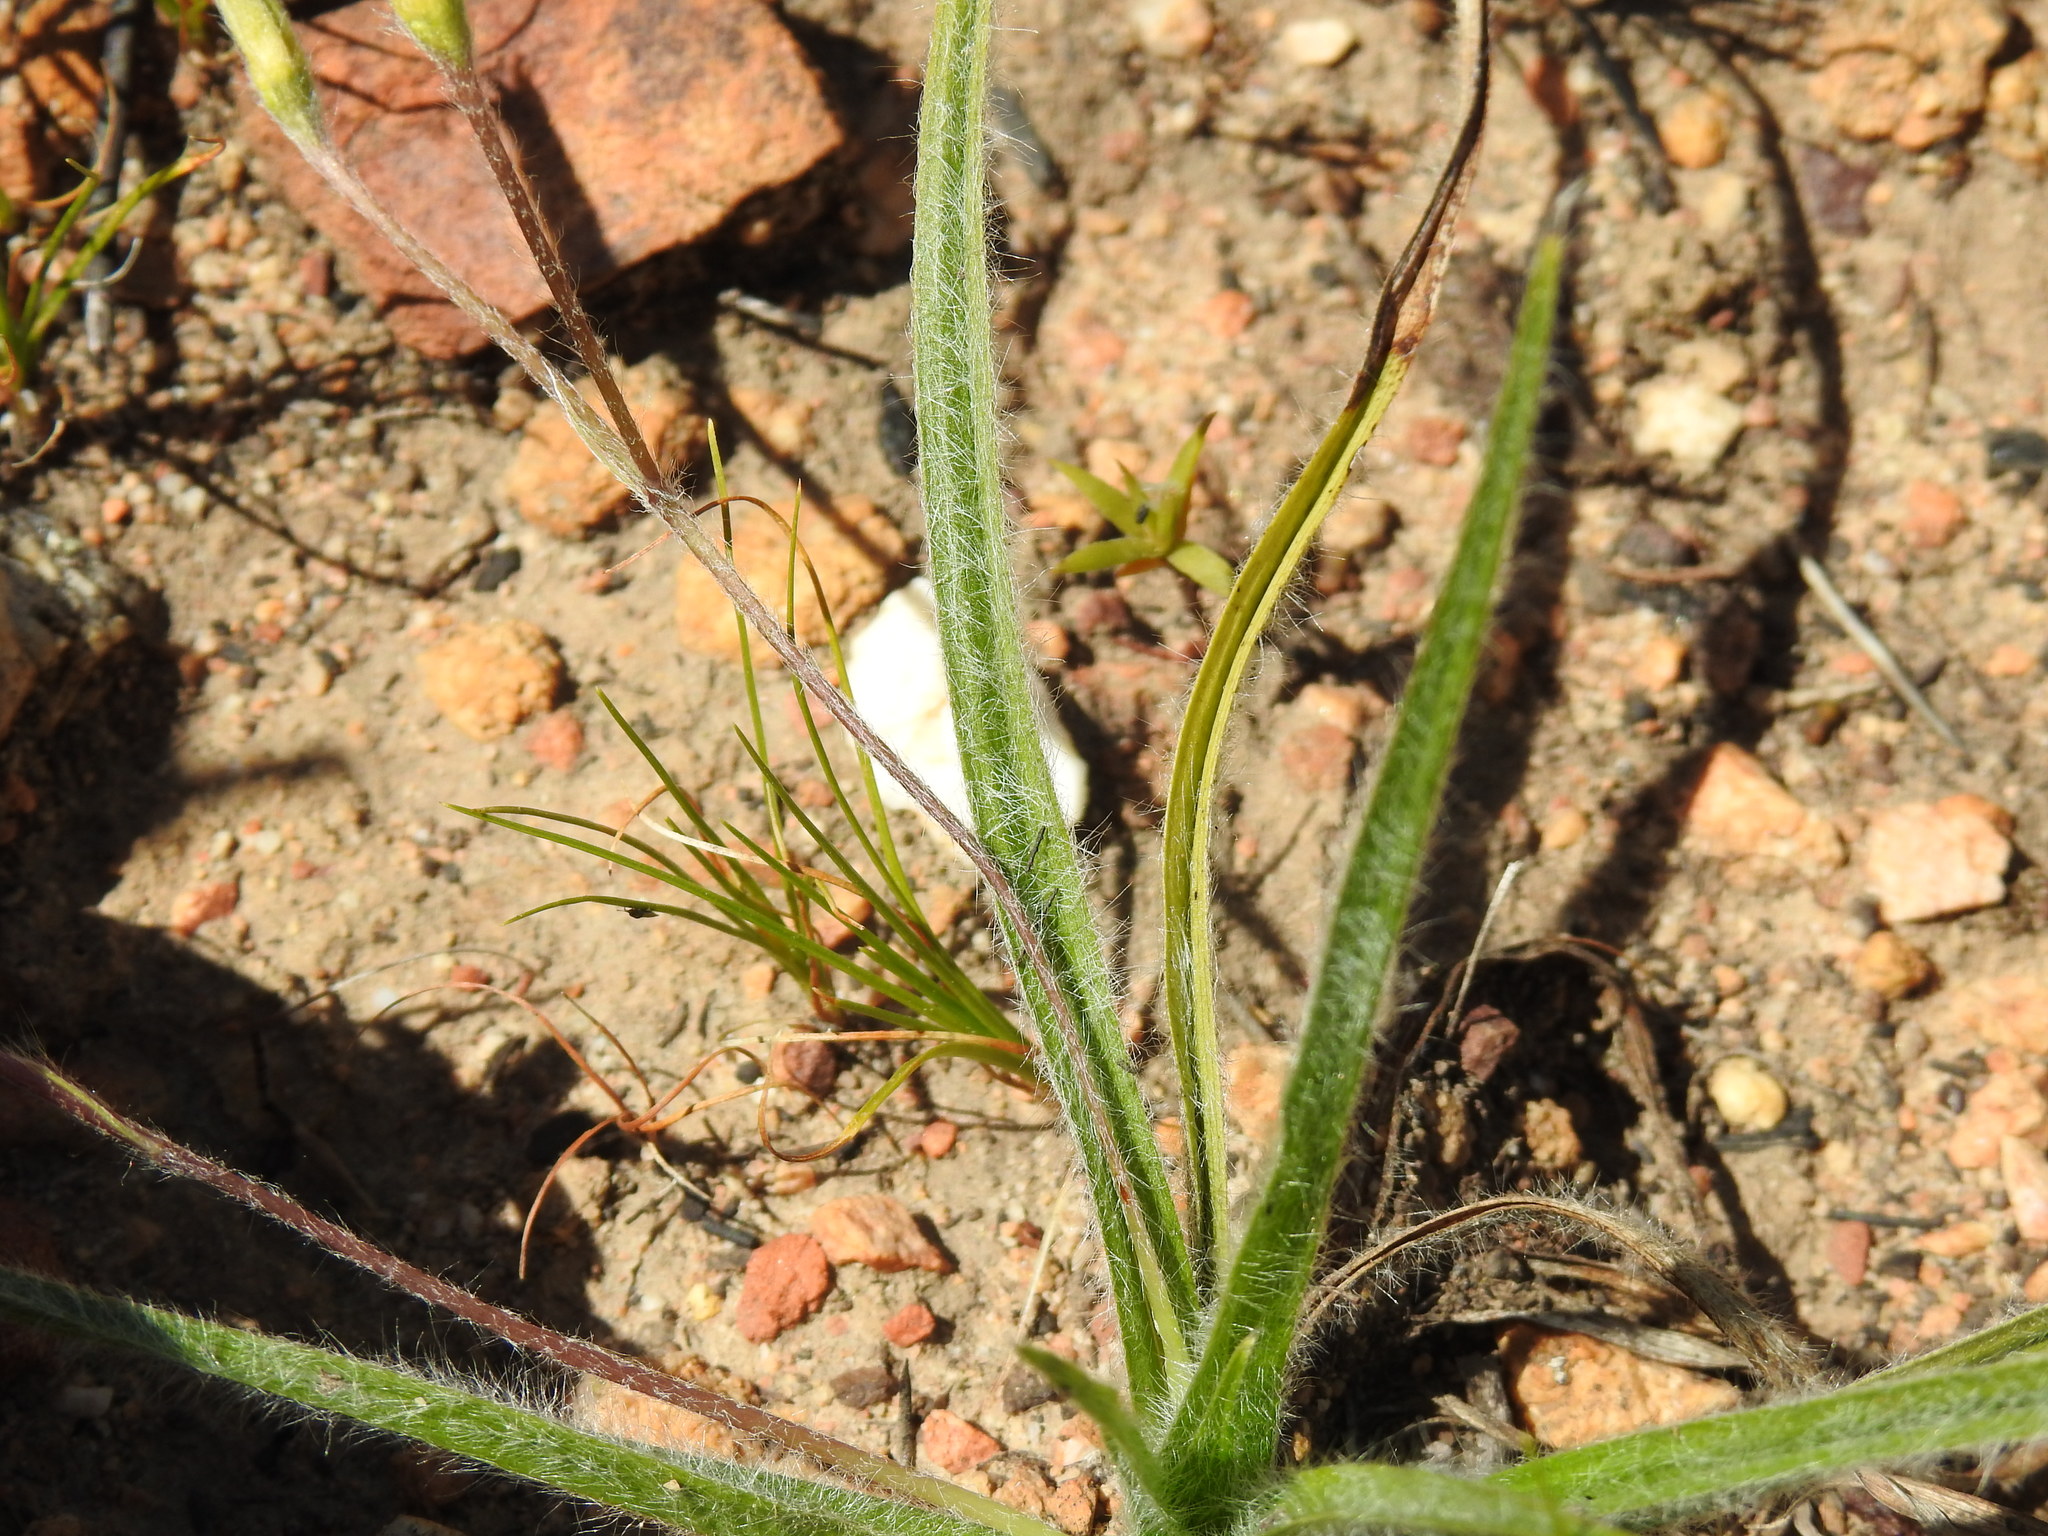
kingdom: Plantae
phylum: Tracheophyta
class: Liliopsida
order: Asparagales
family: Hypoxidaceae
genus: Hypoxis
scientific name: Hypoxis floccosa
